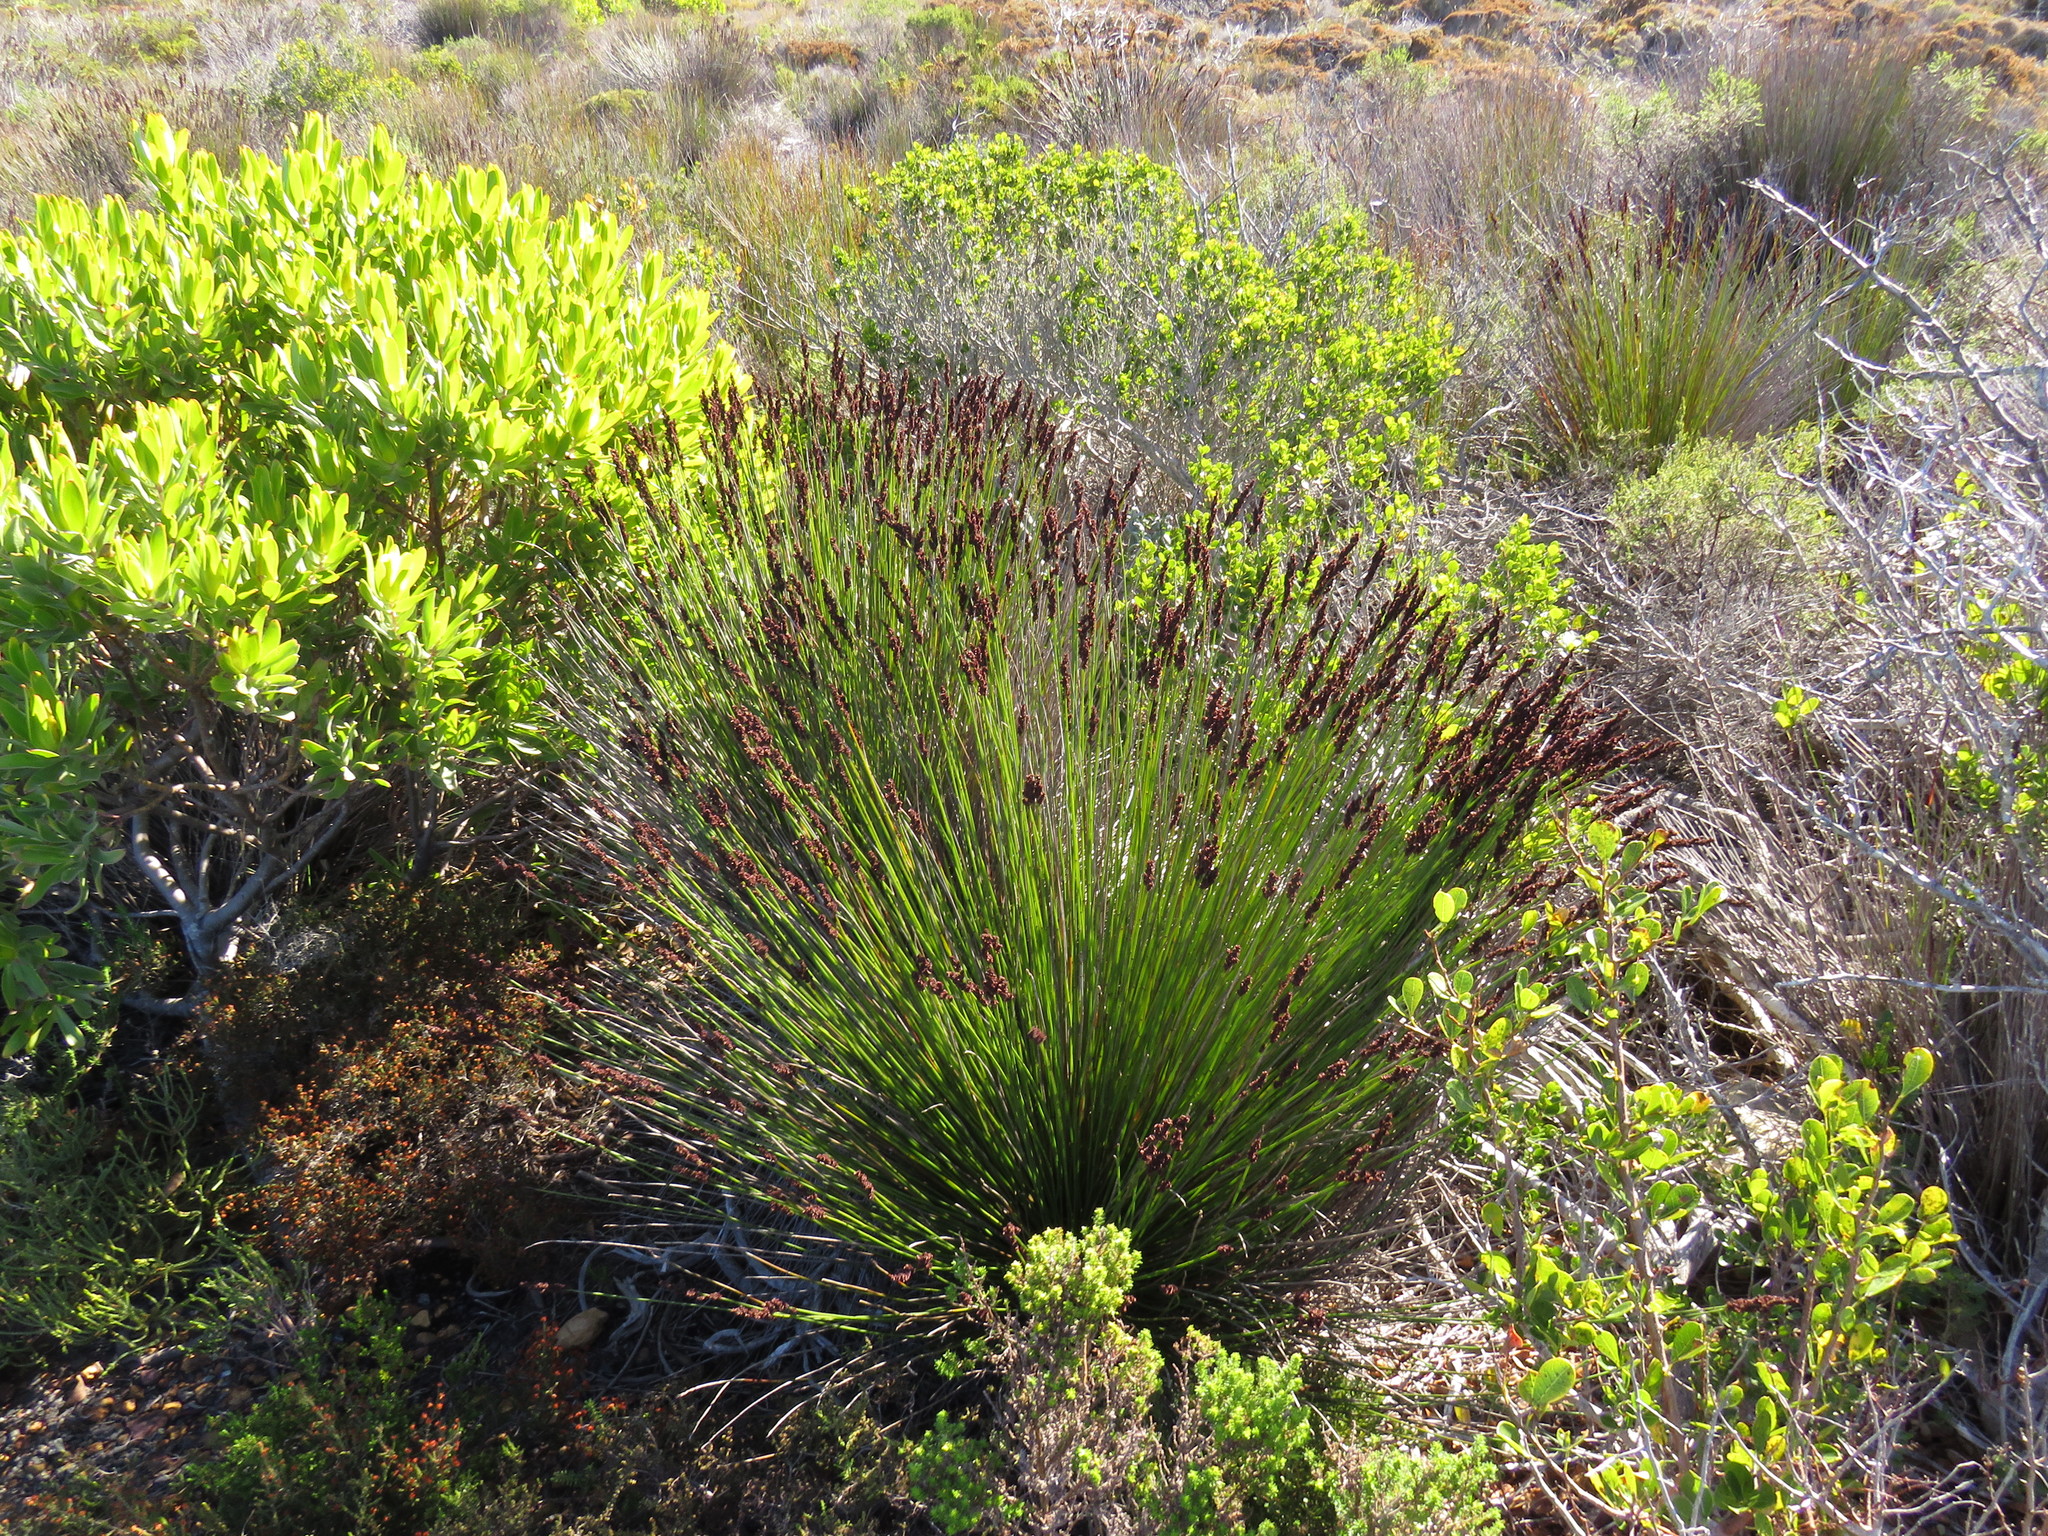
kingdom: Plantae
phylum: Tracheophyta
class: Liliopsida
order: Poales
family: Restionaceae
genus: Elegia
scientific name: Elegia tectorum
